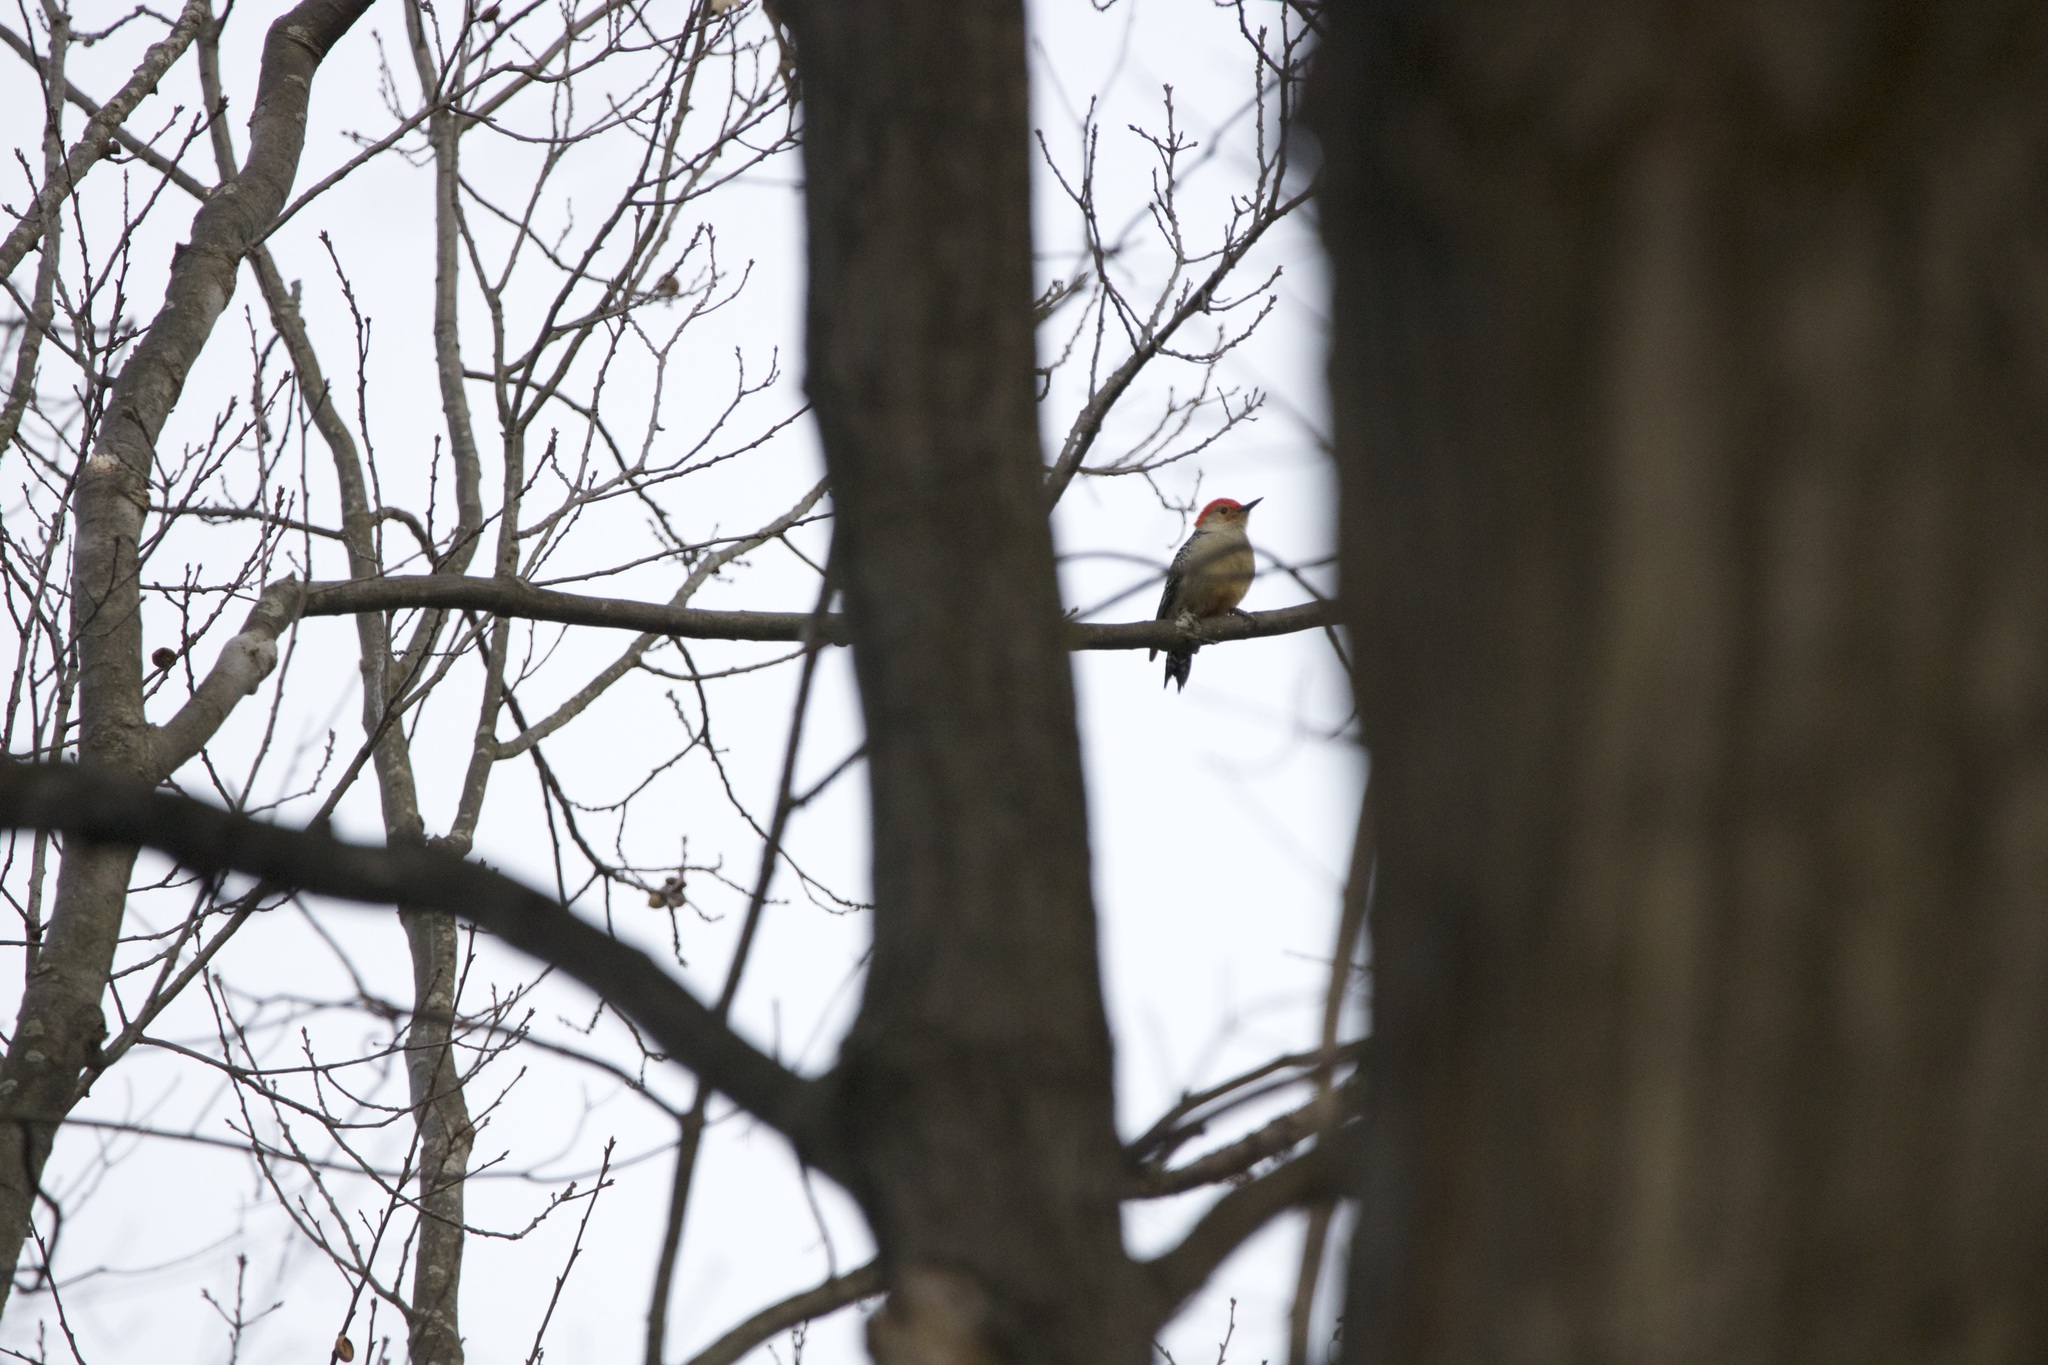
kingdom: Animalia
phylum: Chordata
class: Aves
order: Piciformes
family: Picidae
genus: Melanerpes
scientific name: Melanerpes carolinus
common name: Red-bellied woodpecker
